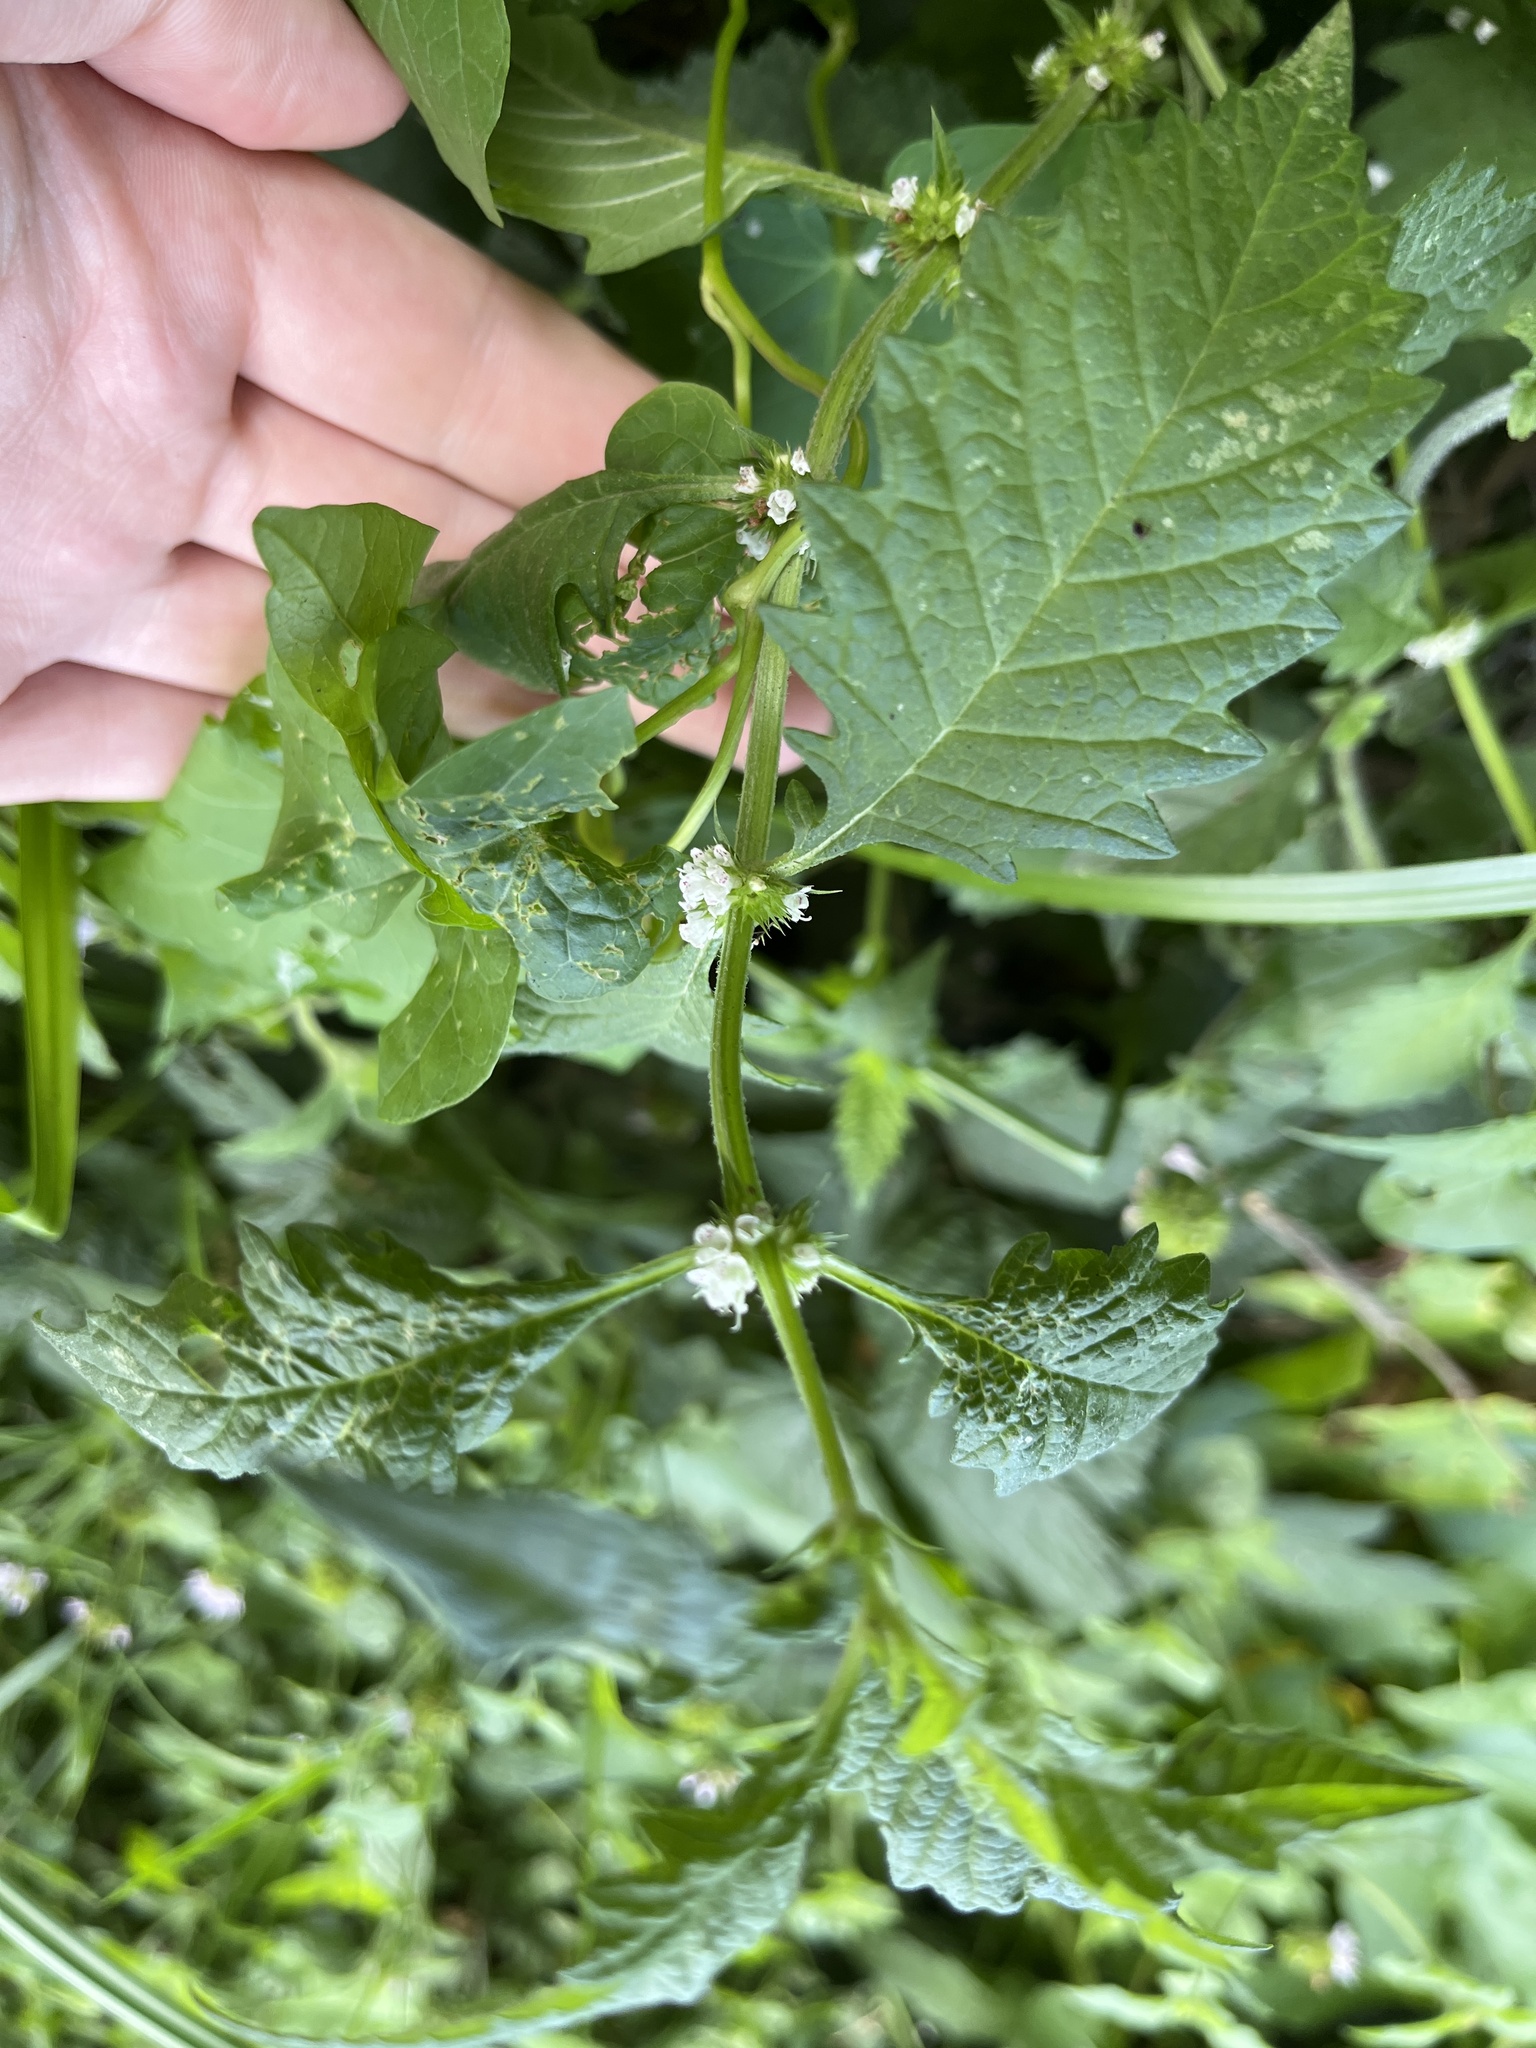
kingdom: Plantae
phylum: Tracheophyta
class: Magnoliopsida
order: Lamiales
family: Lamiaceae
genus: Lycopus
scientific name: Lycopus europaeus
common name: European bugleweed
